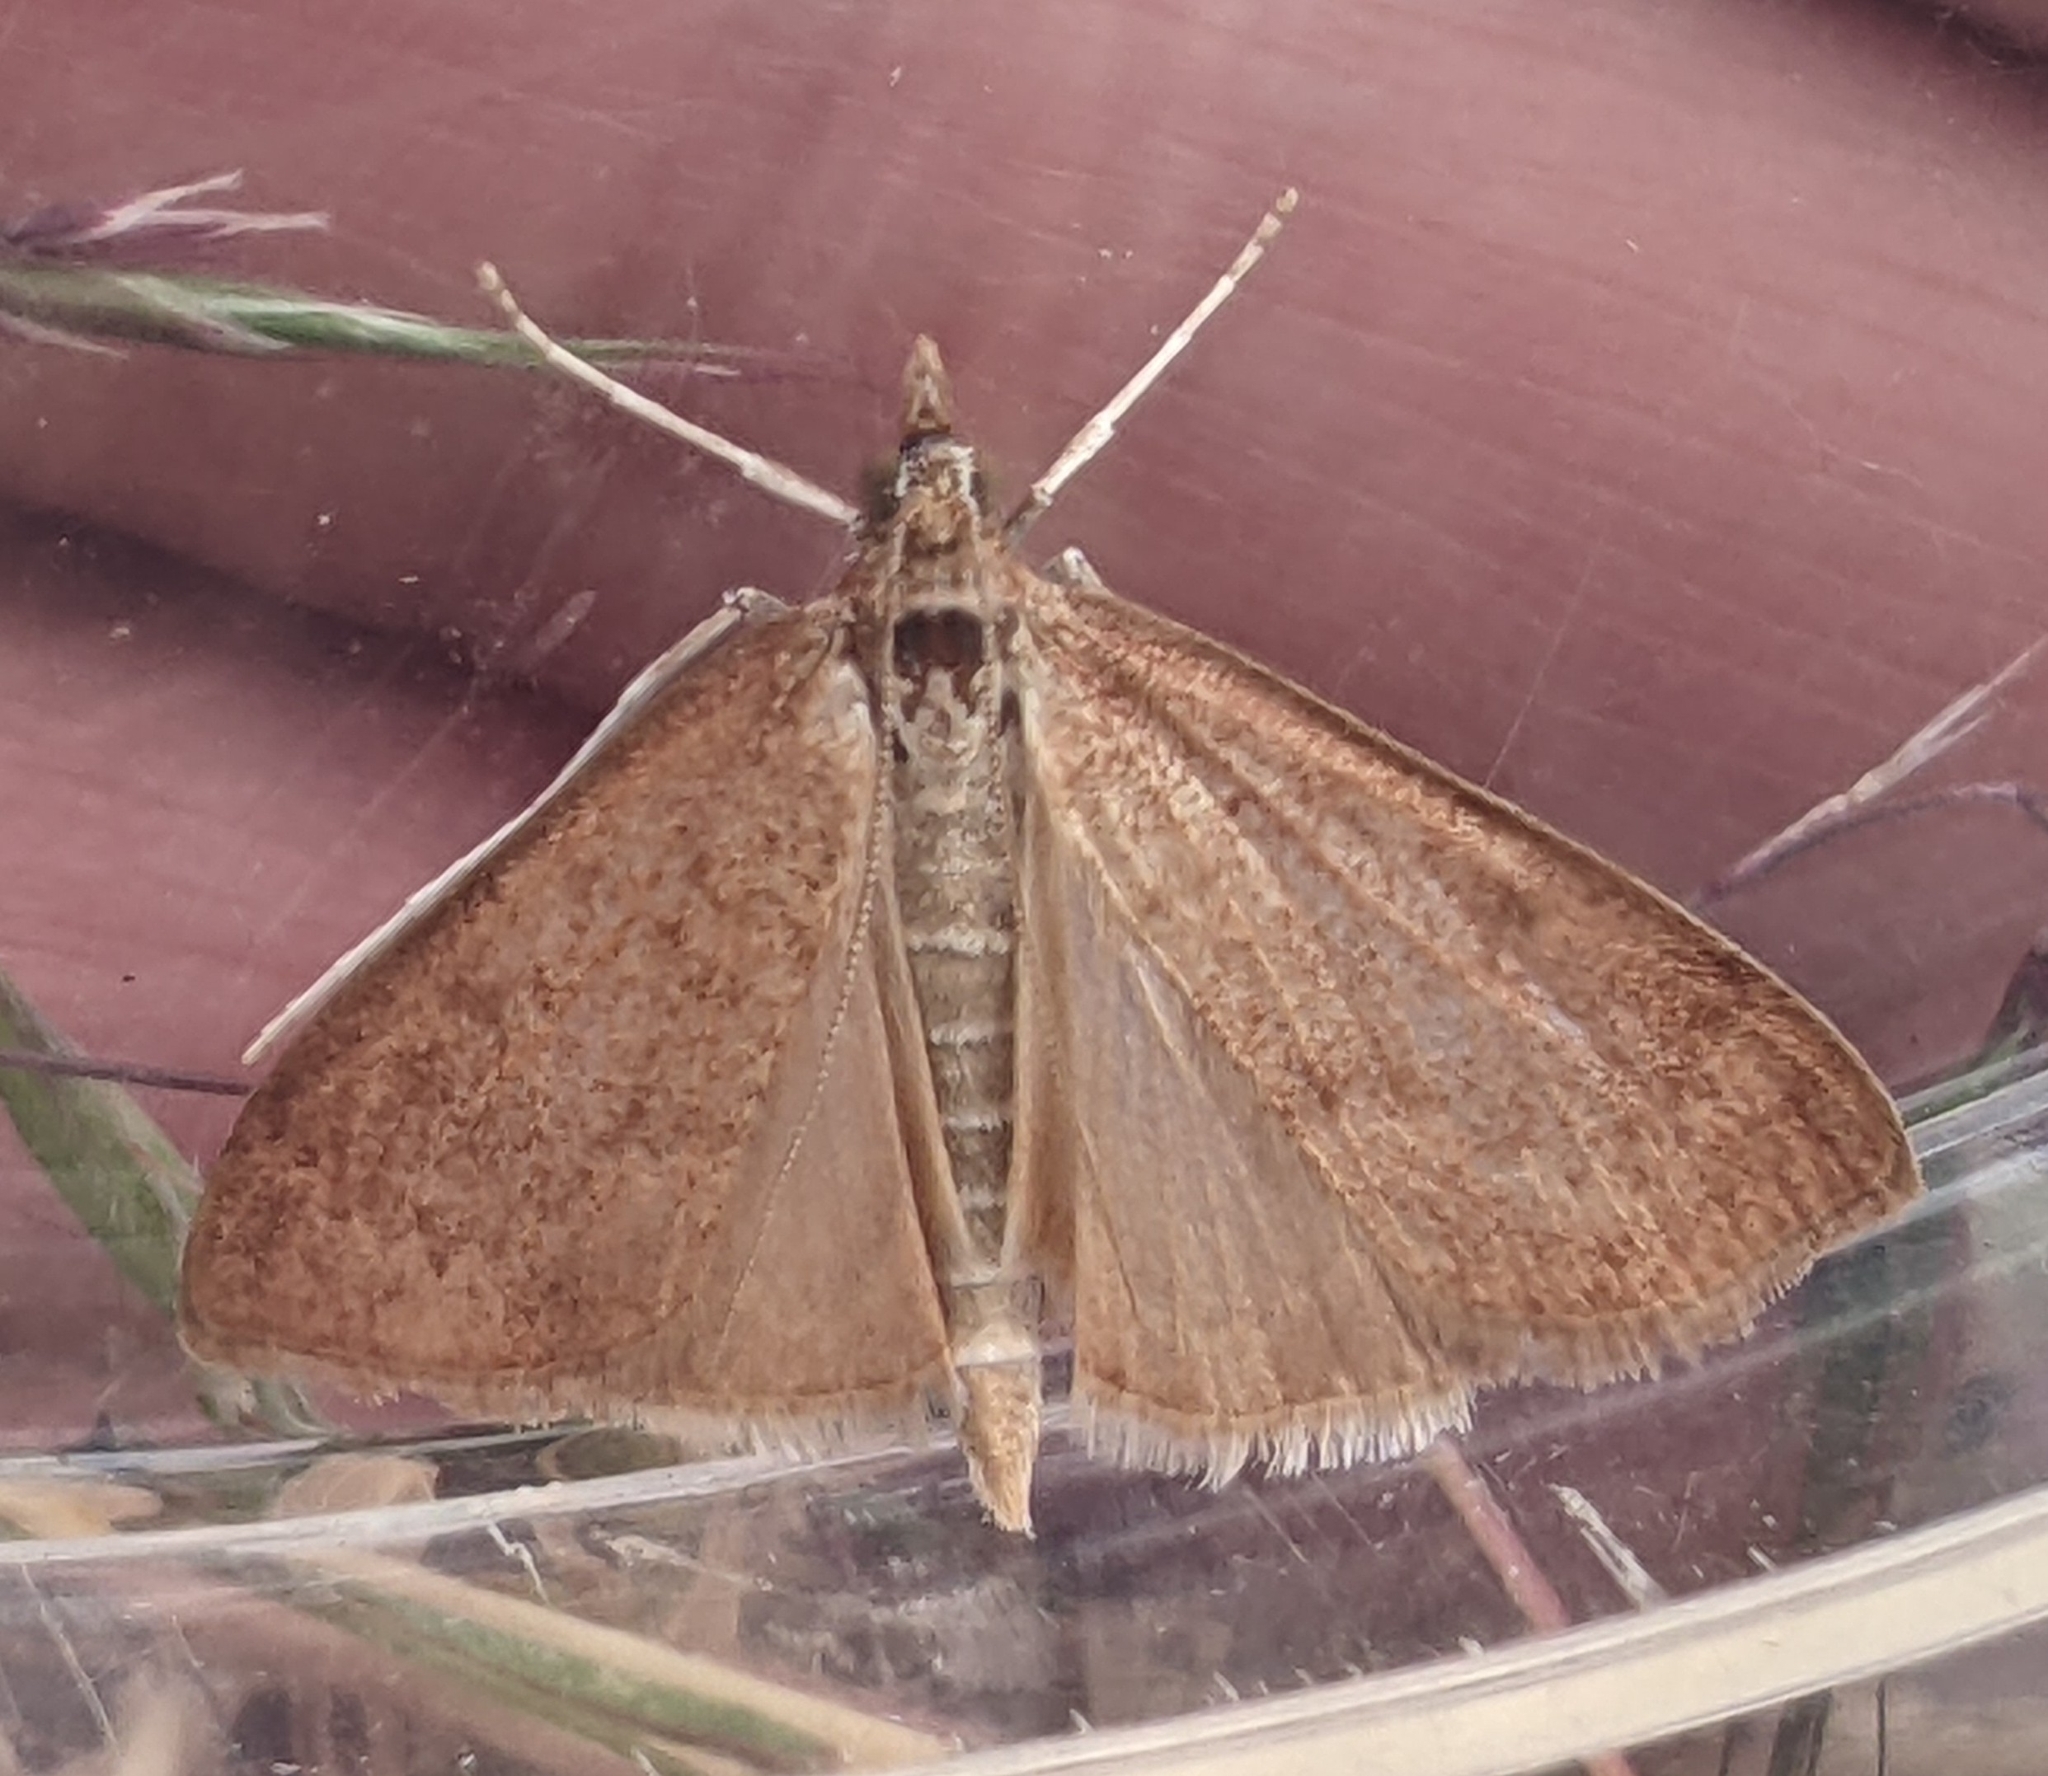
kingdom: Animalia
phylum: Arthropoda
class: Insecta
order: Lepidoptera
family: Crambidae
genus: Saucrobotys
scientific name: Saucrobotys futilalis
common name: Dogbane saucrobotys moth
